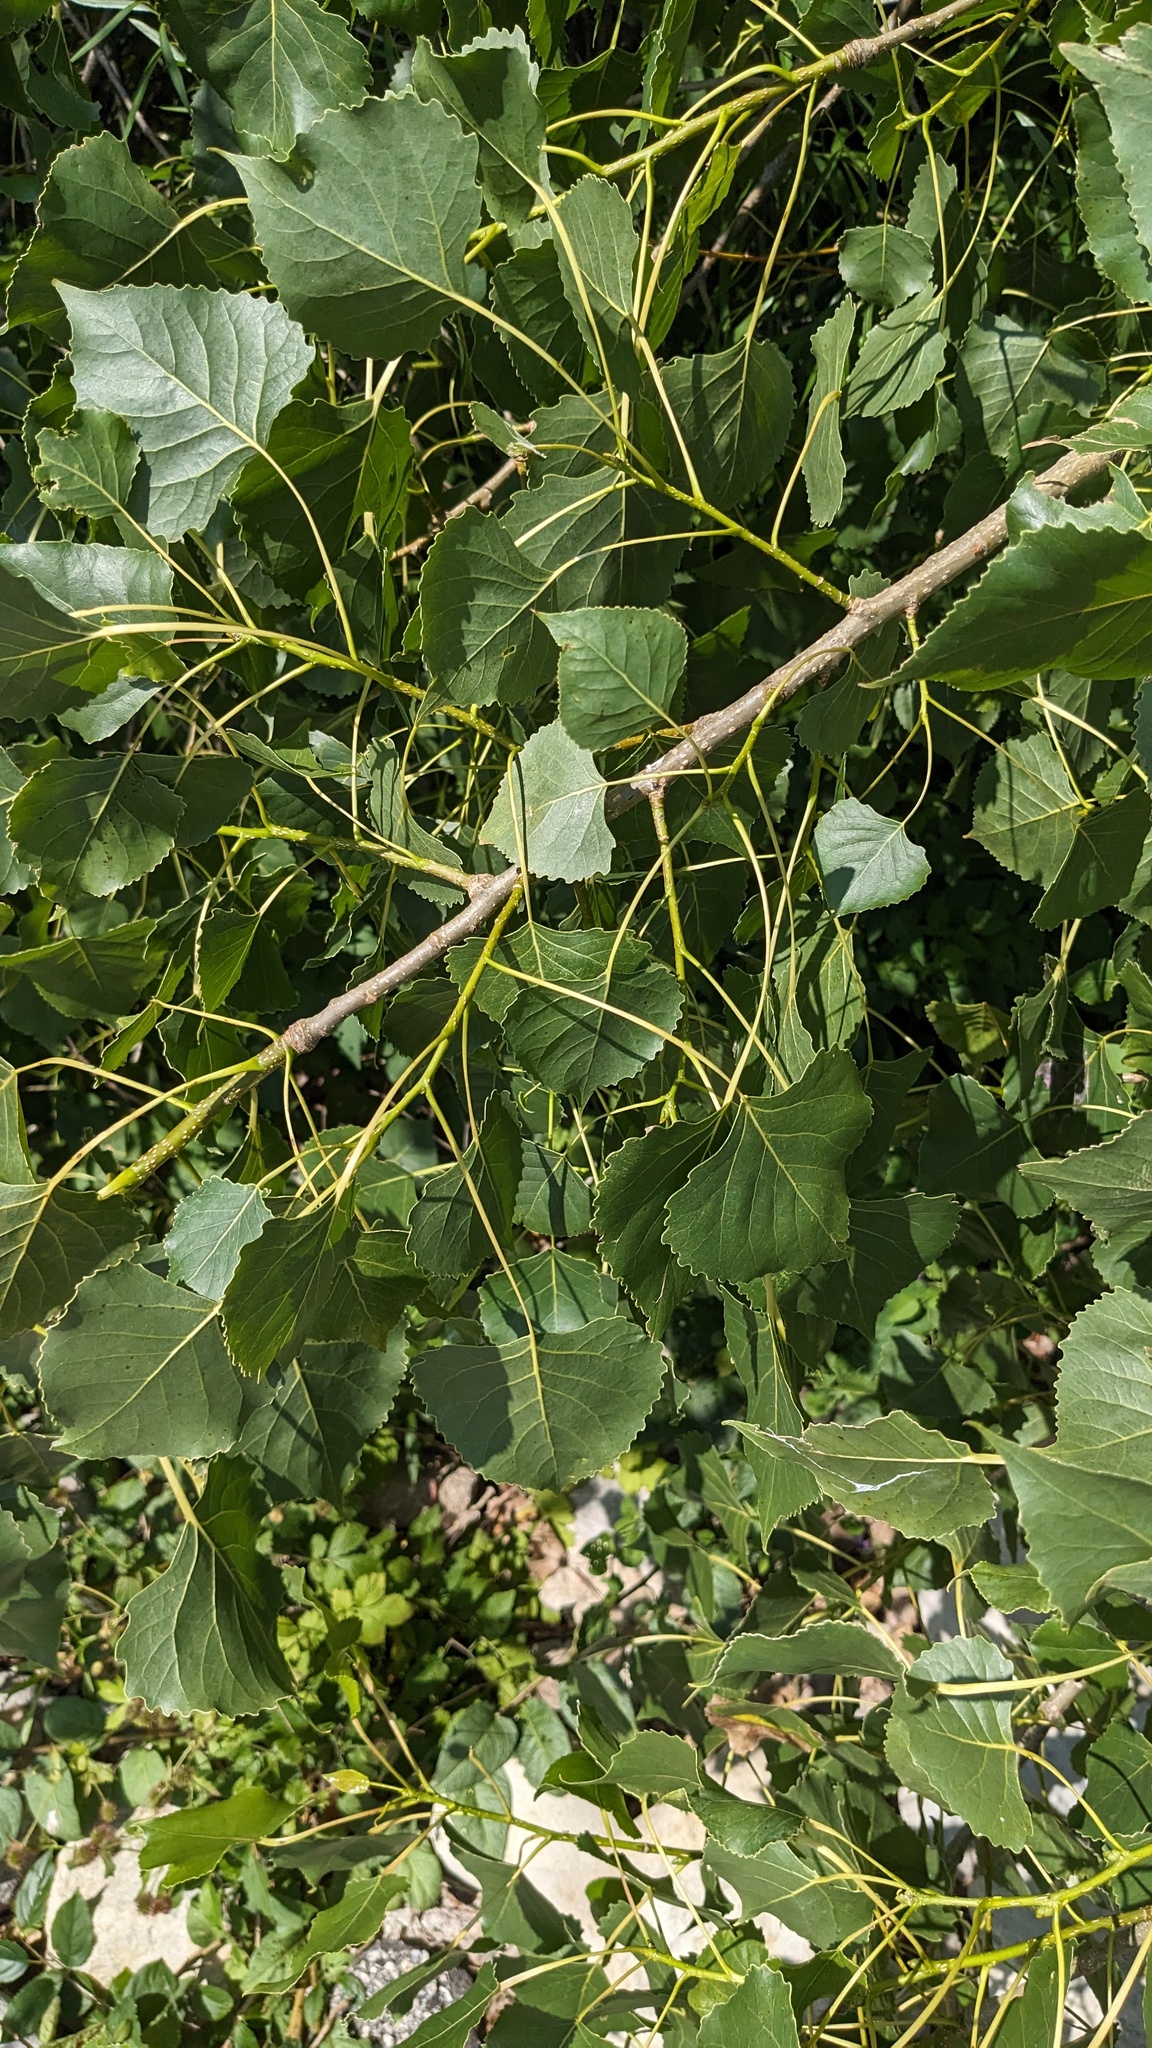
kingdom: Plantae
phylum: Tracheophyta
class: Magnoliopsida
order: Malpighiales
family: Salicaceae
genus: Populus
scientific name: Populus deltoides
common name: Eastern cottonwood
